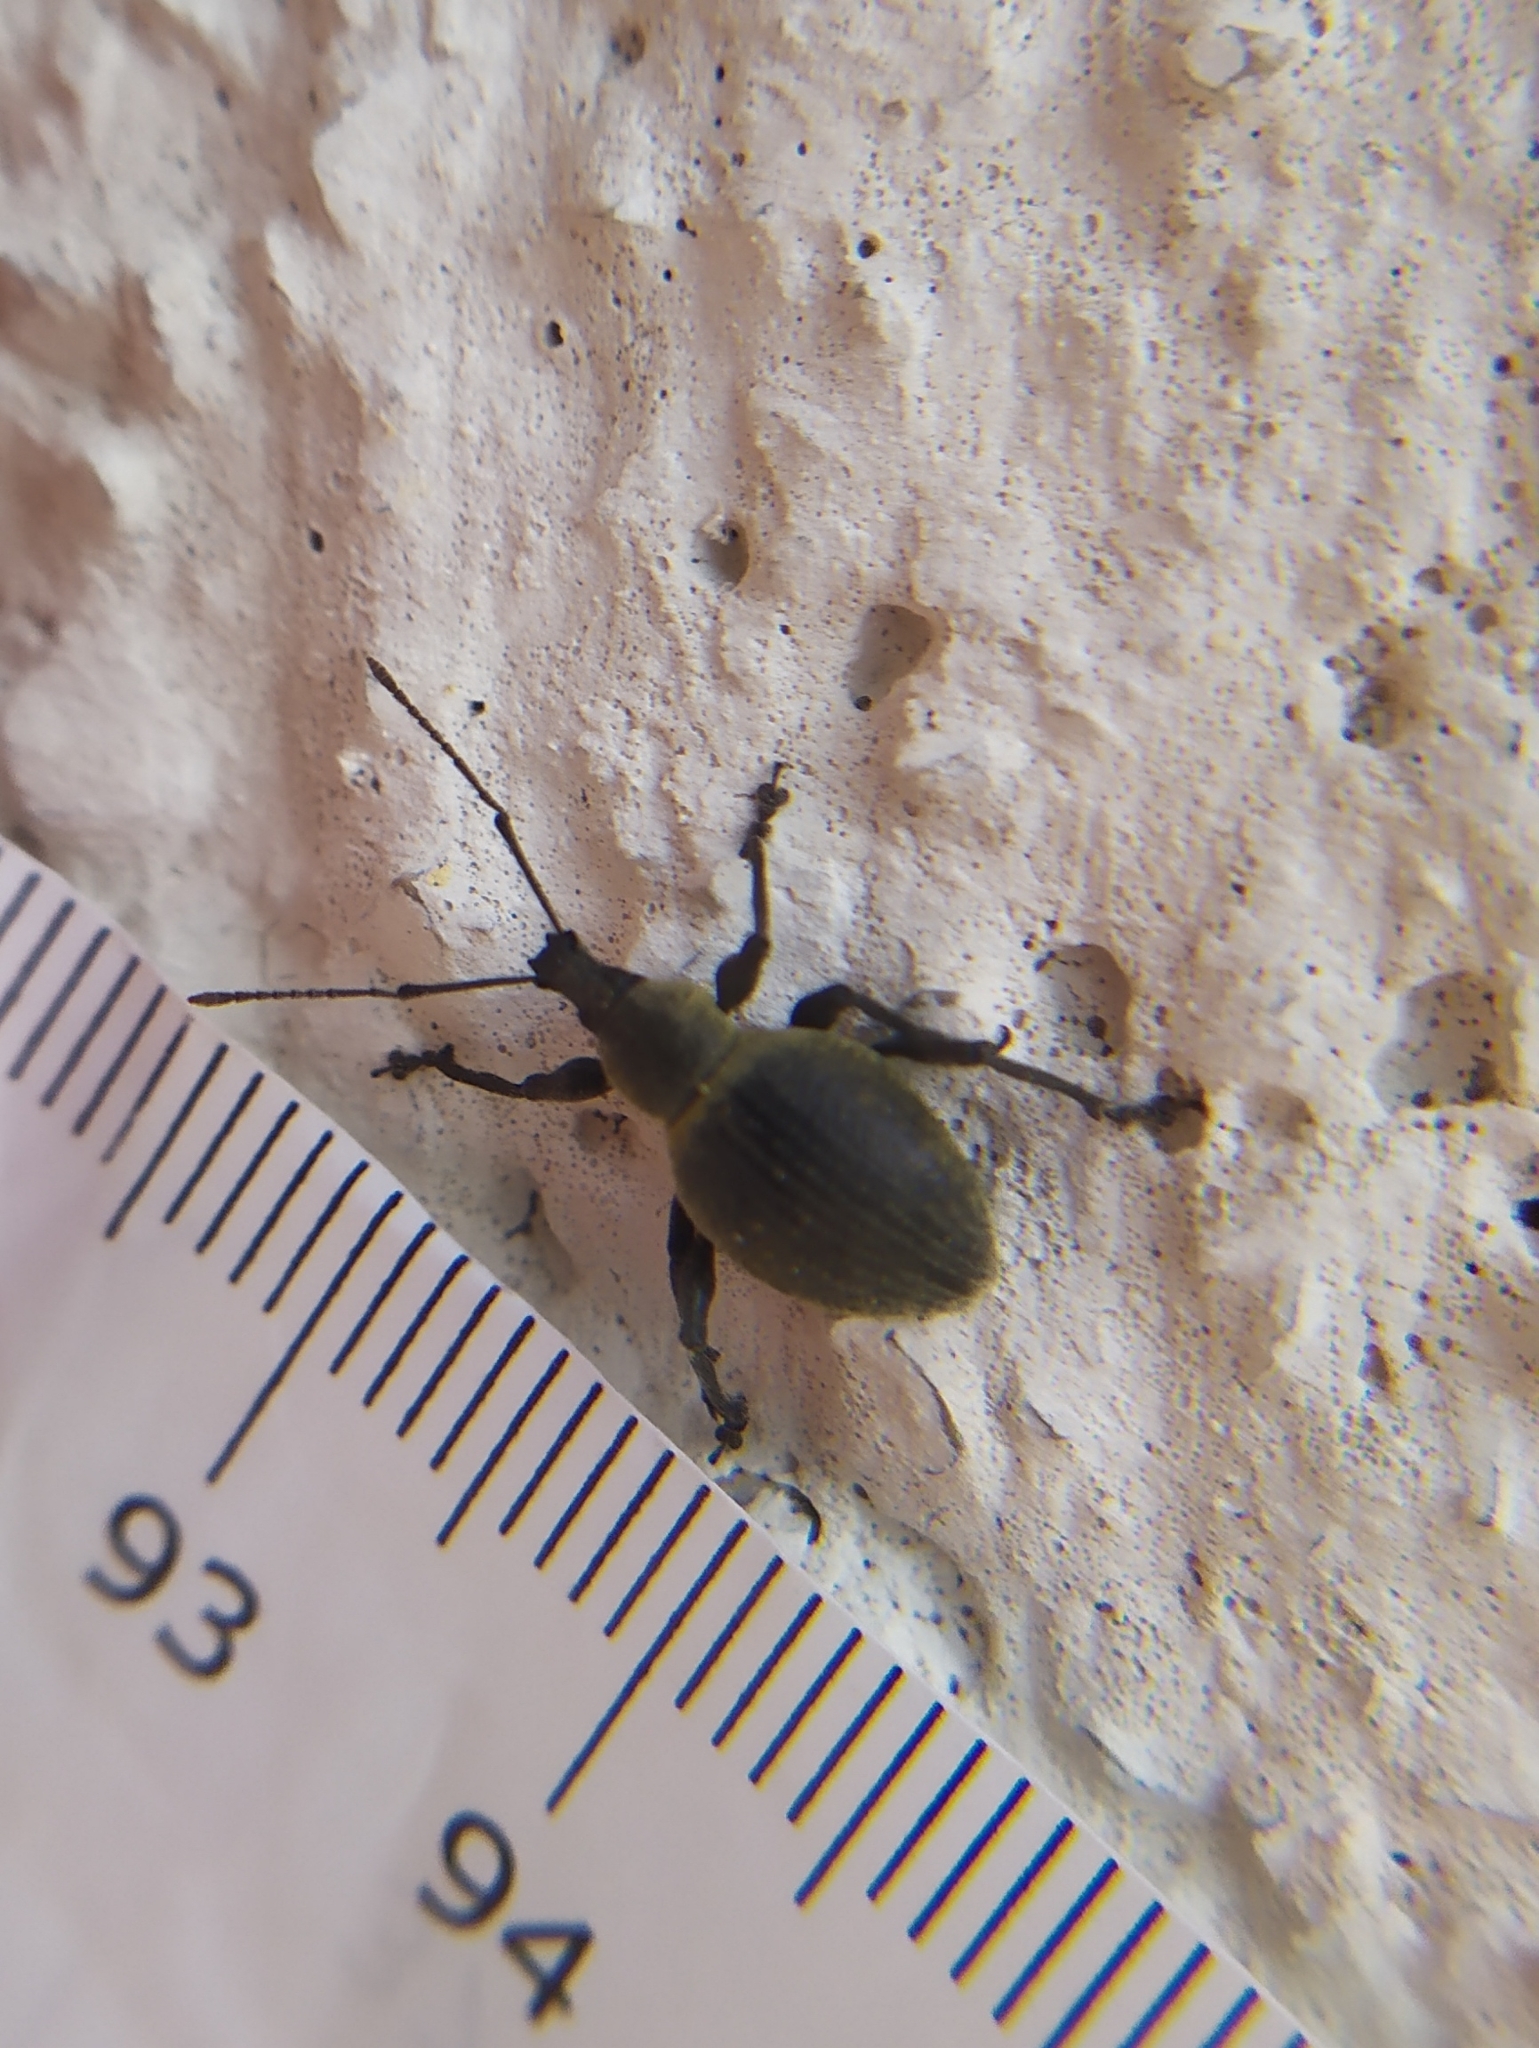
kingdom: Animalia
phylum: Arthropoda
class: Insecta
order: Coleoptera
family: Curculionidae
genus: Otiorhynchus
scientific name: Otiorhynchus pseudonothus
